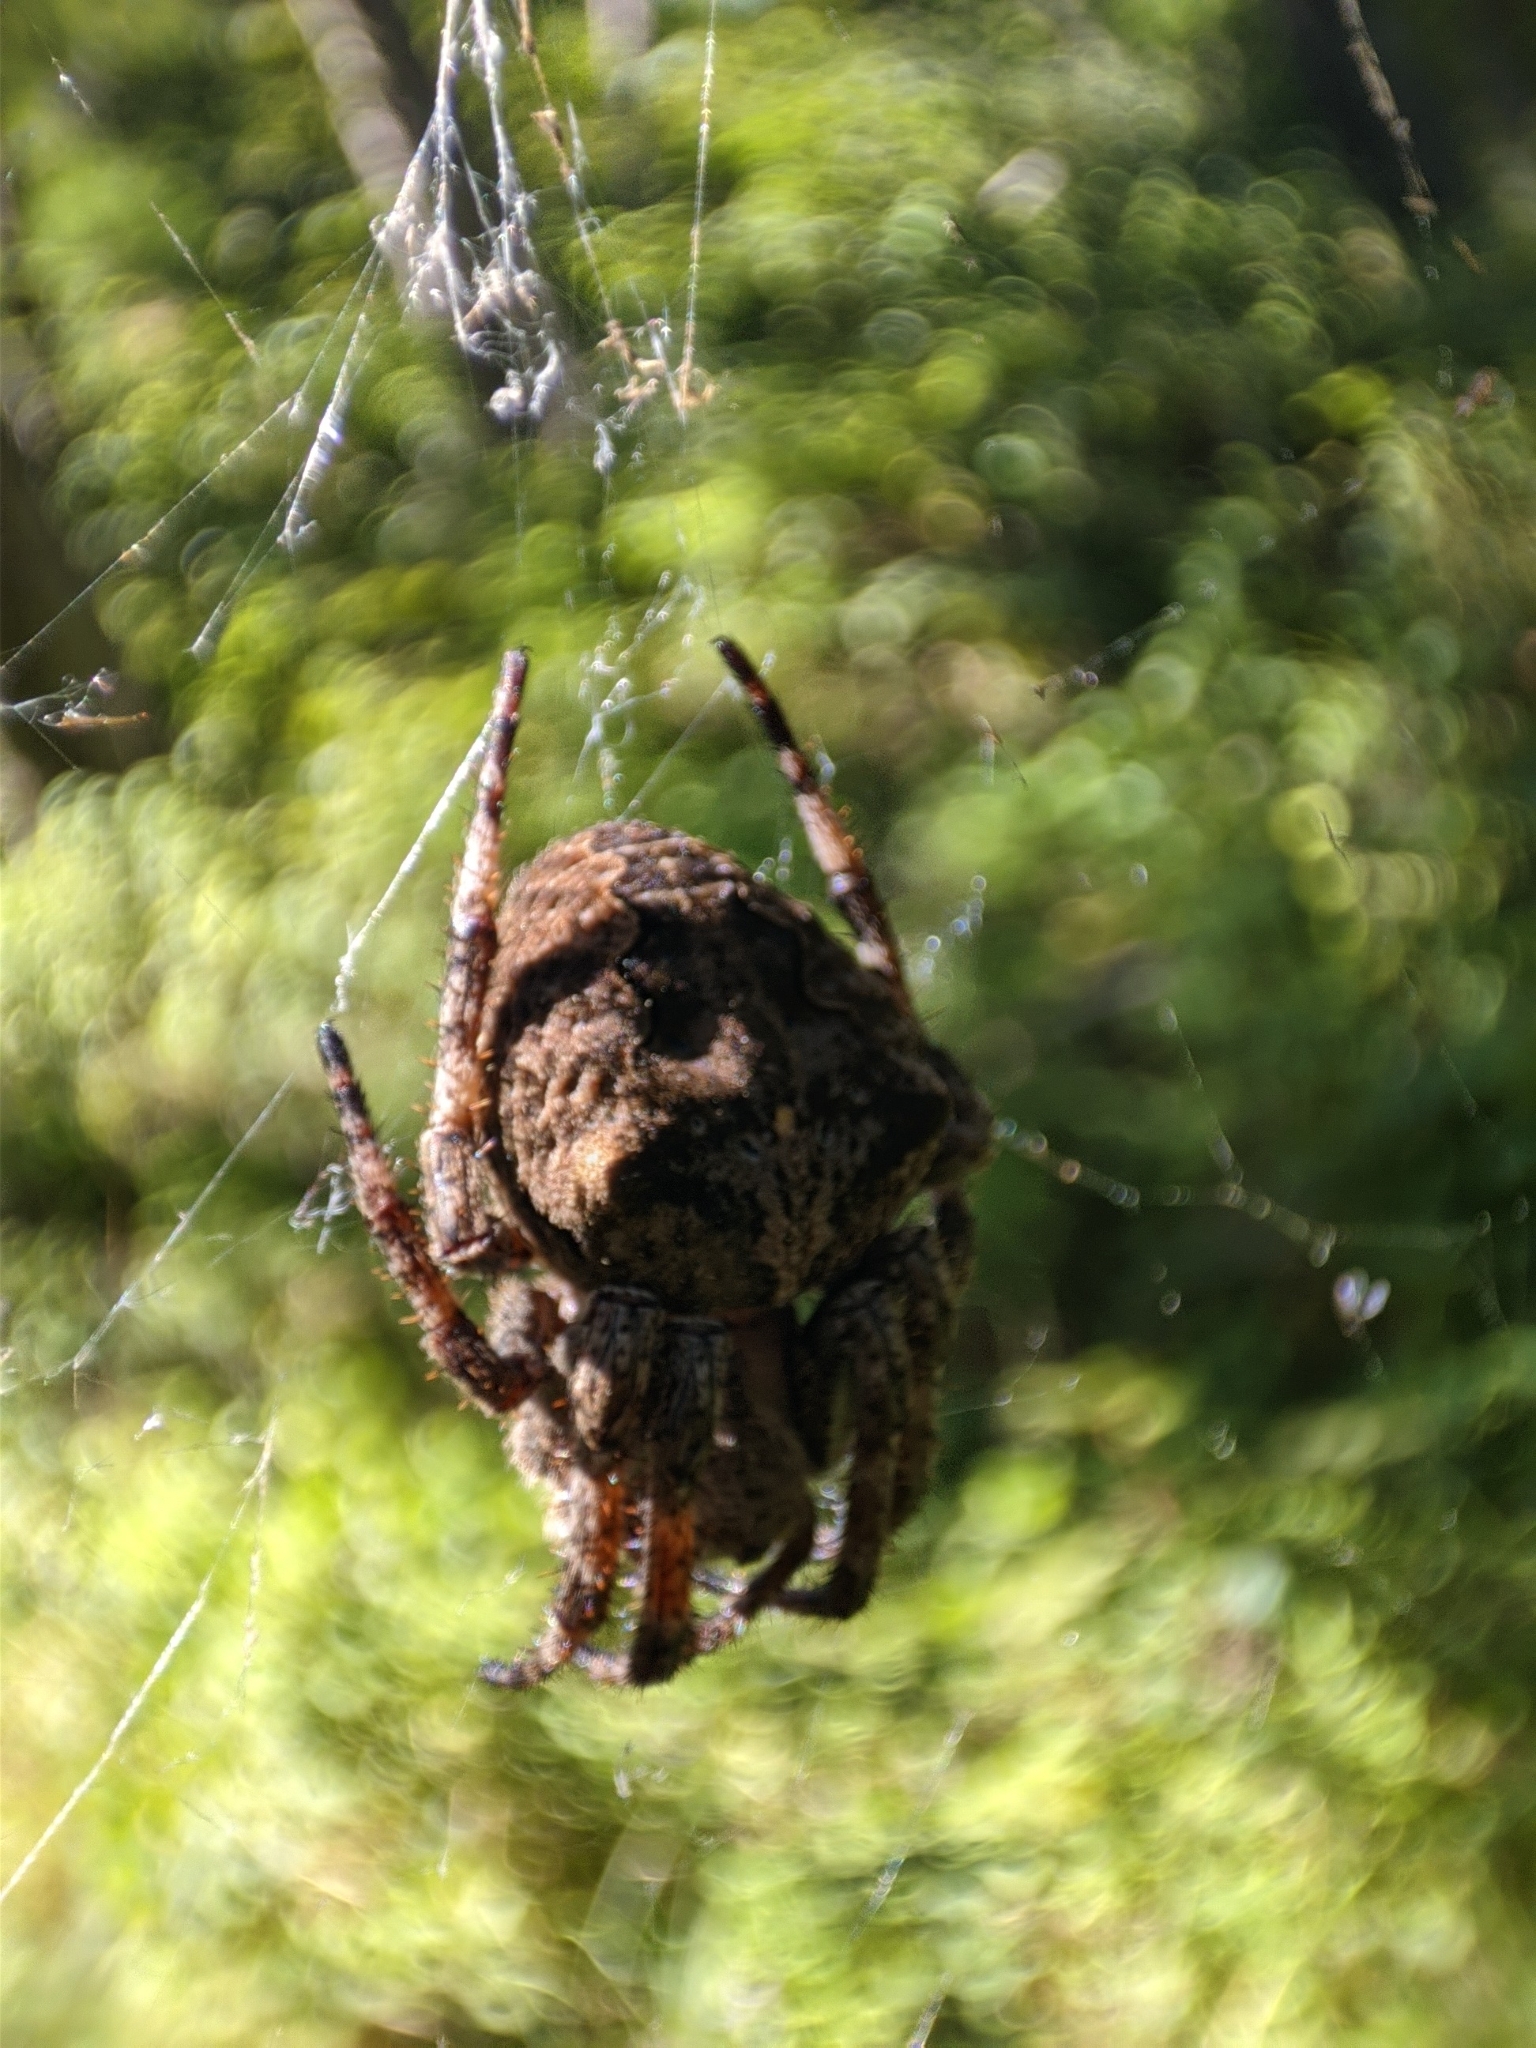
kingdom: Animalia
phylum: Arthropoda
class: Arachnida
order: Araneae
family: Araneidae
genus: Araneus
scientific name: Araneus angulatus
